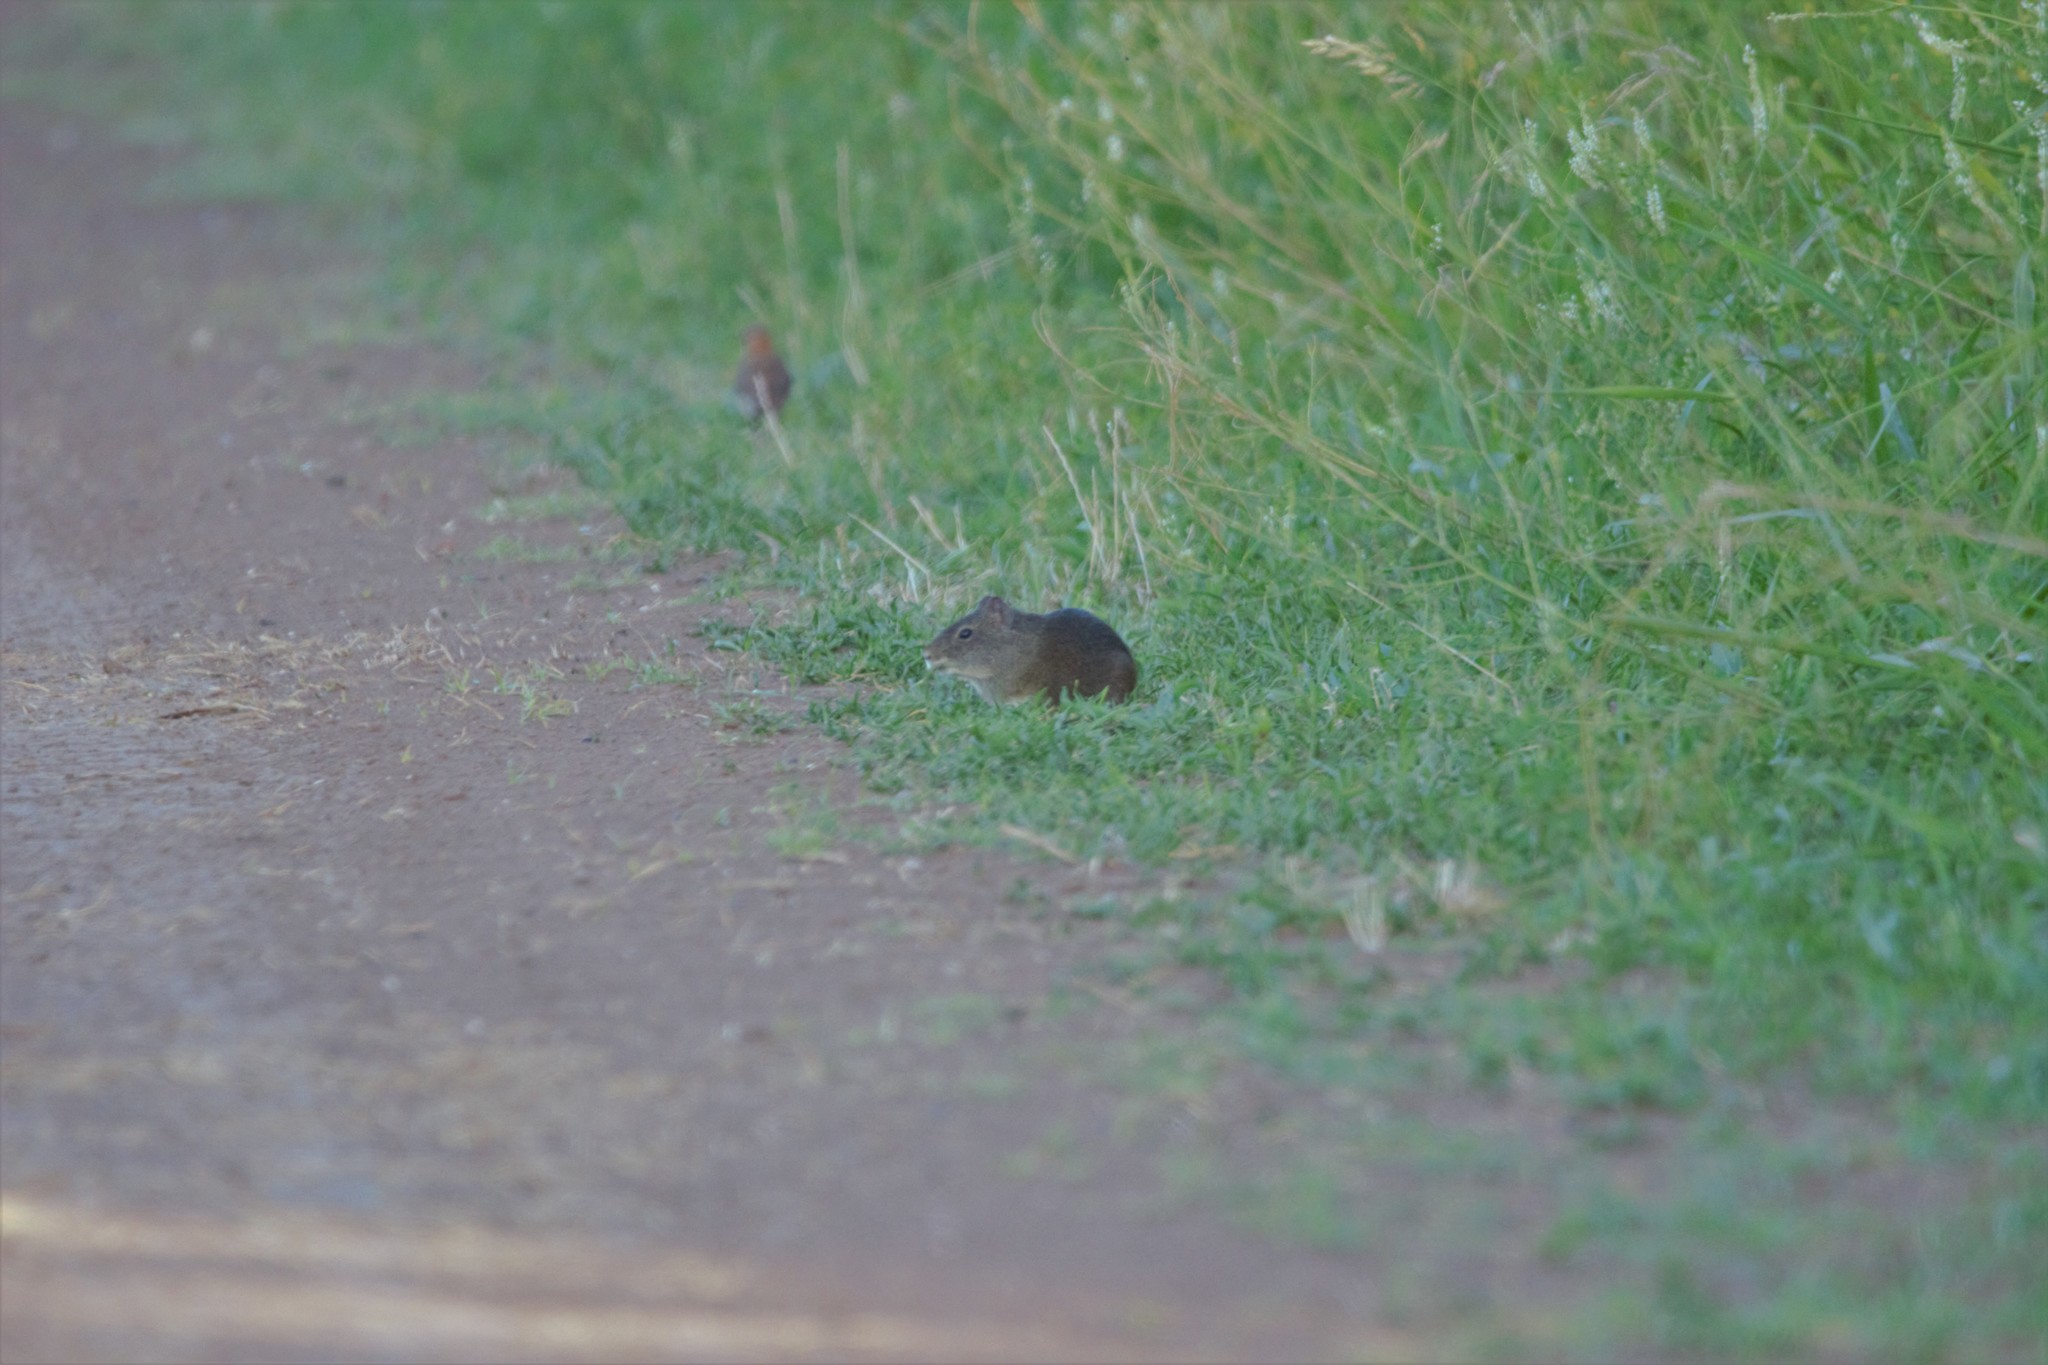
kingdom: Animalia
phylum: Chordata
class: Mammalia
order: Rodentia
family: Caviidae
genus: Cavia
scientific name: Cavia aperea
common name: Brazilian guinea pig
